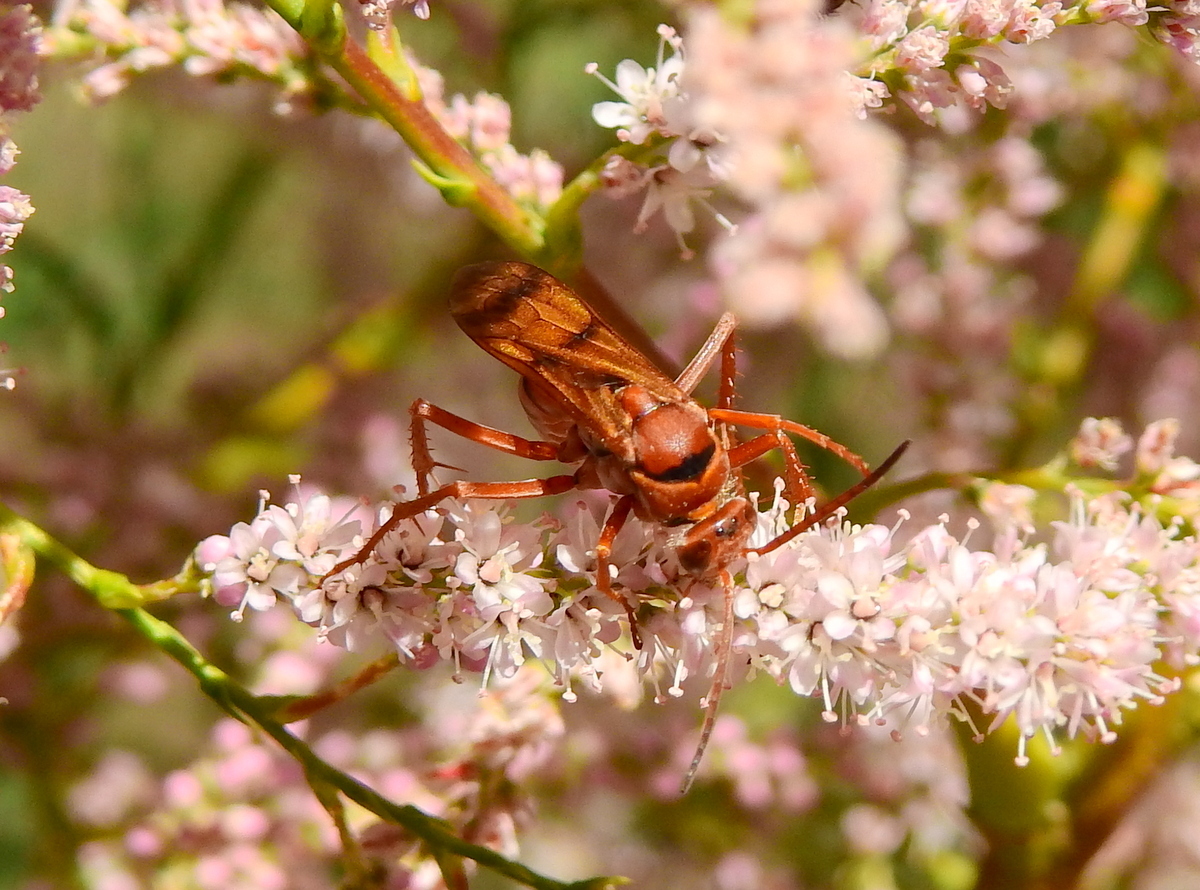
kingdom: Animalia
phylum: Arthropoda
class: Insecta
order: Hymenoptera
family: Pompilidae
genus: Tachypompilus
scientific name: Tachypompilus mendozae
